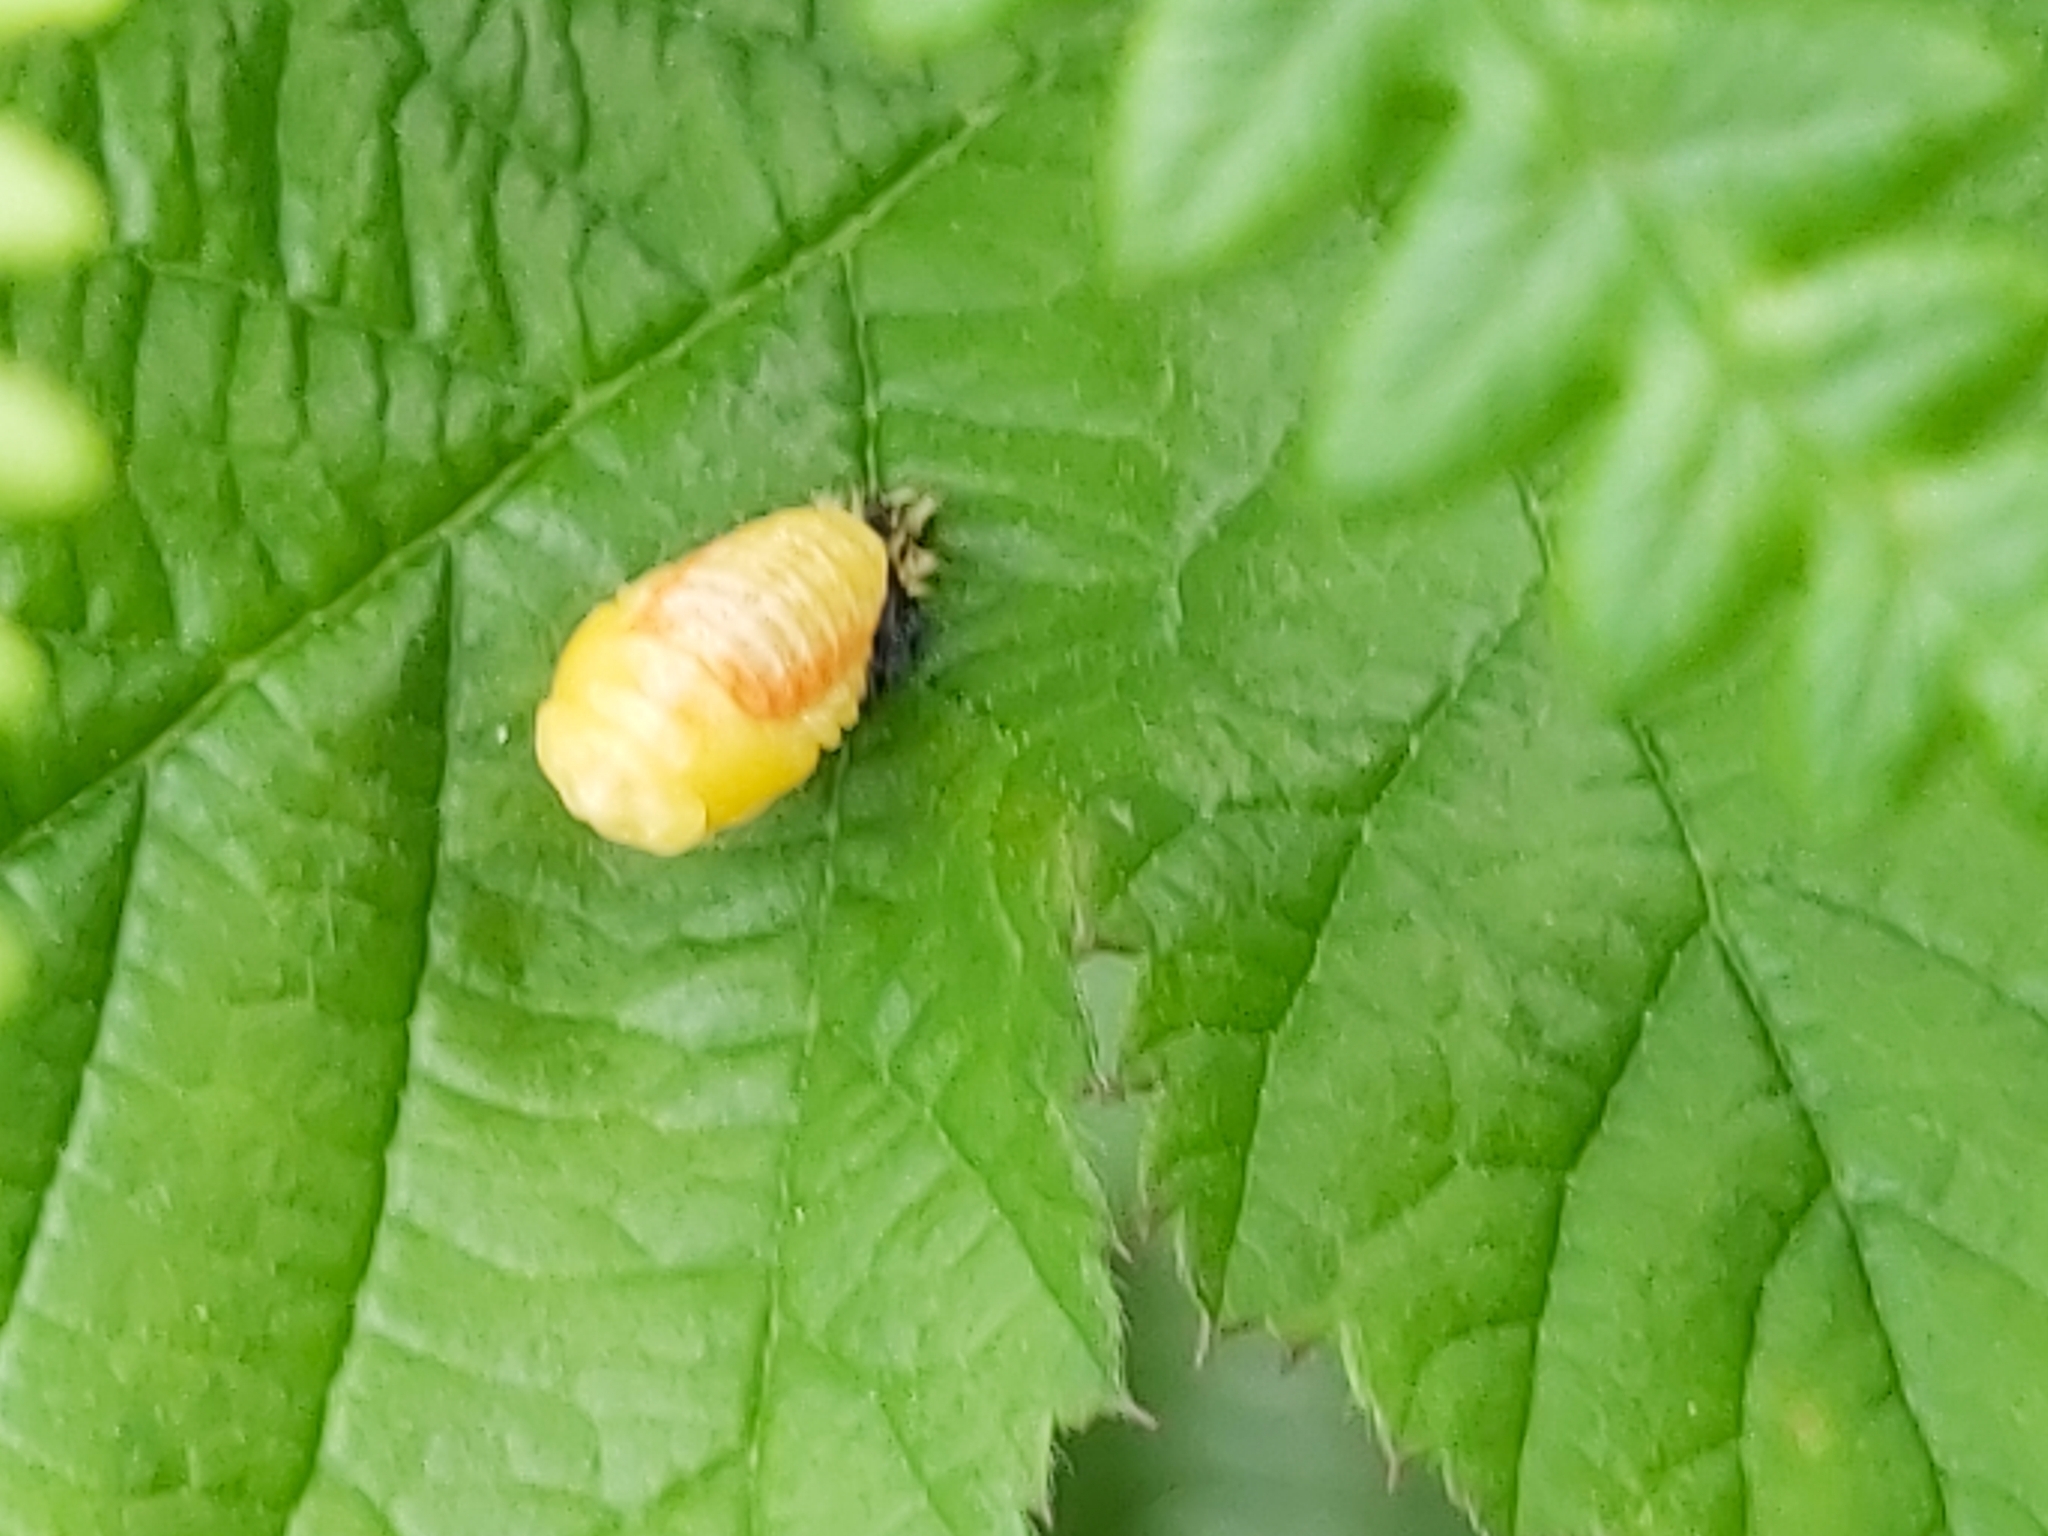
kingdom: Animalia
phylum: Arthropoda
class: Insecta
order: Coleoptera
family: Coccinellidae
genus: Harmonia
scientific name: Harmonia axyridis
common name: Harlequin ladybird
